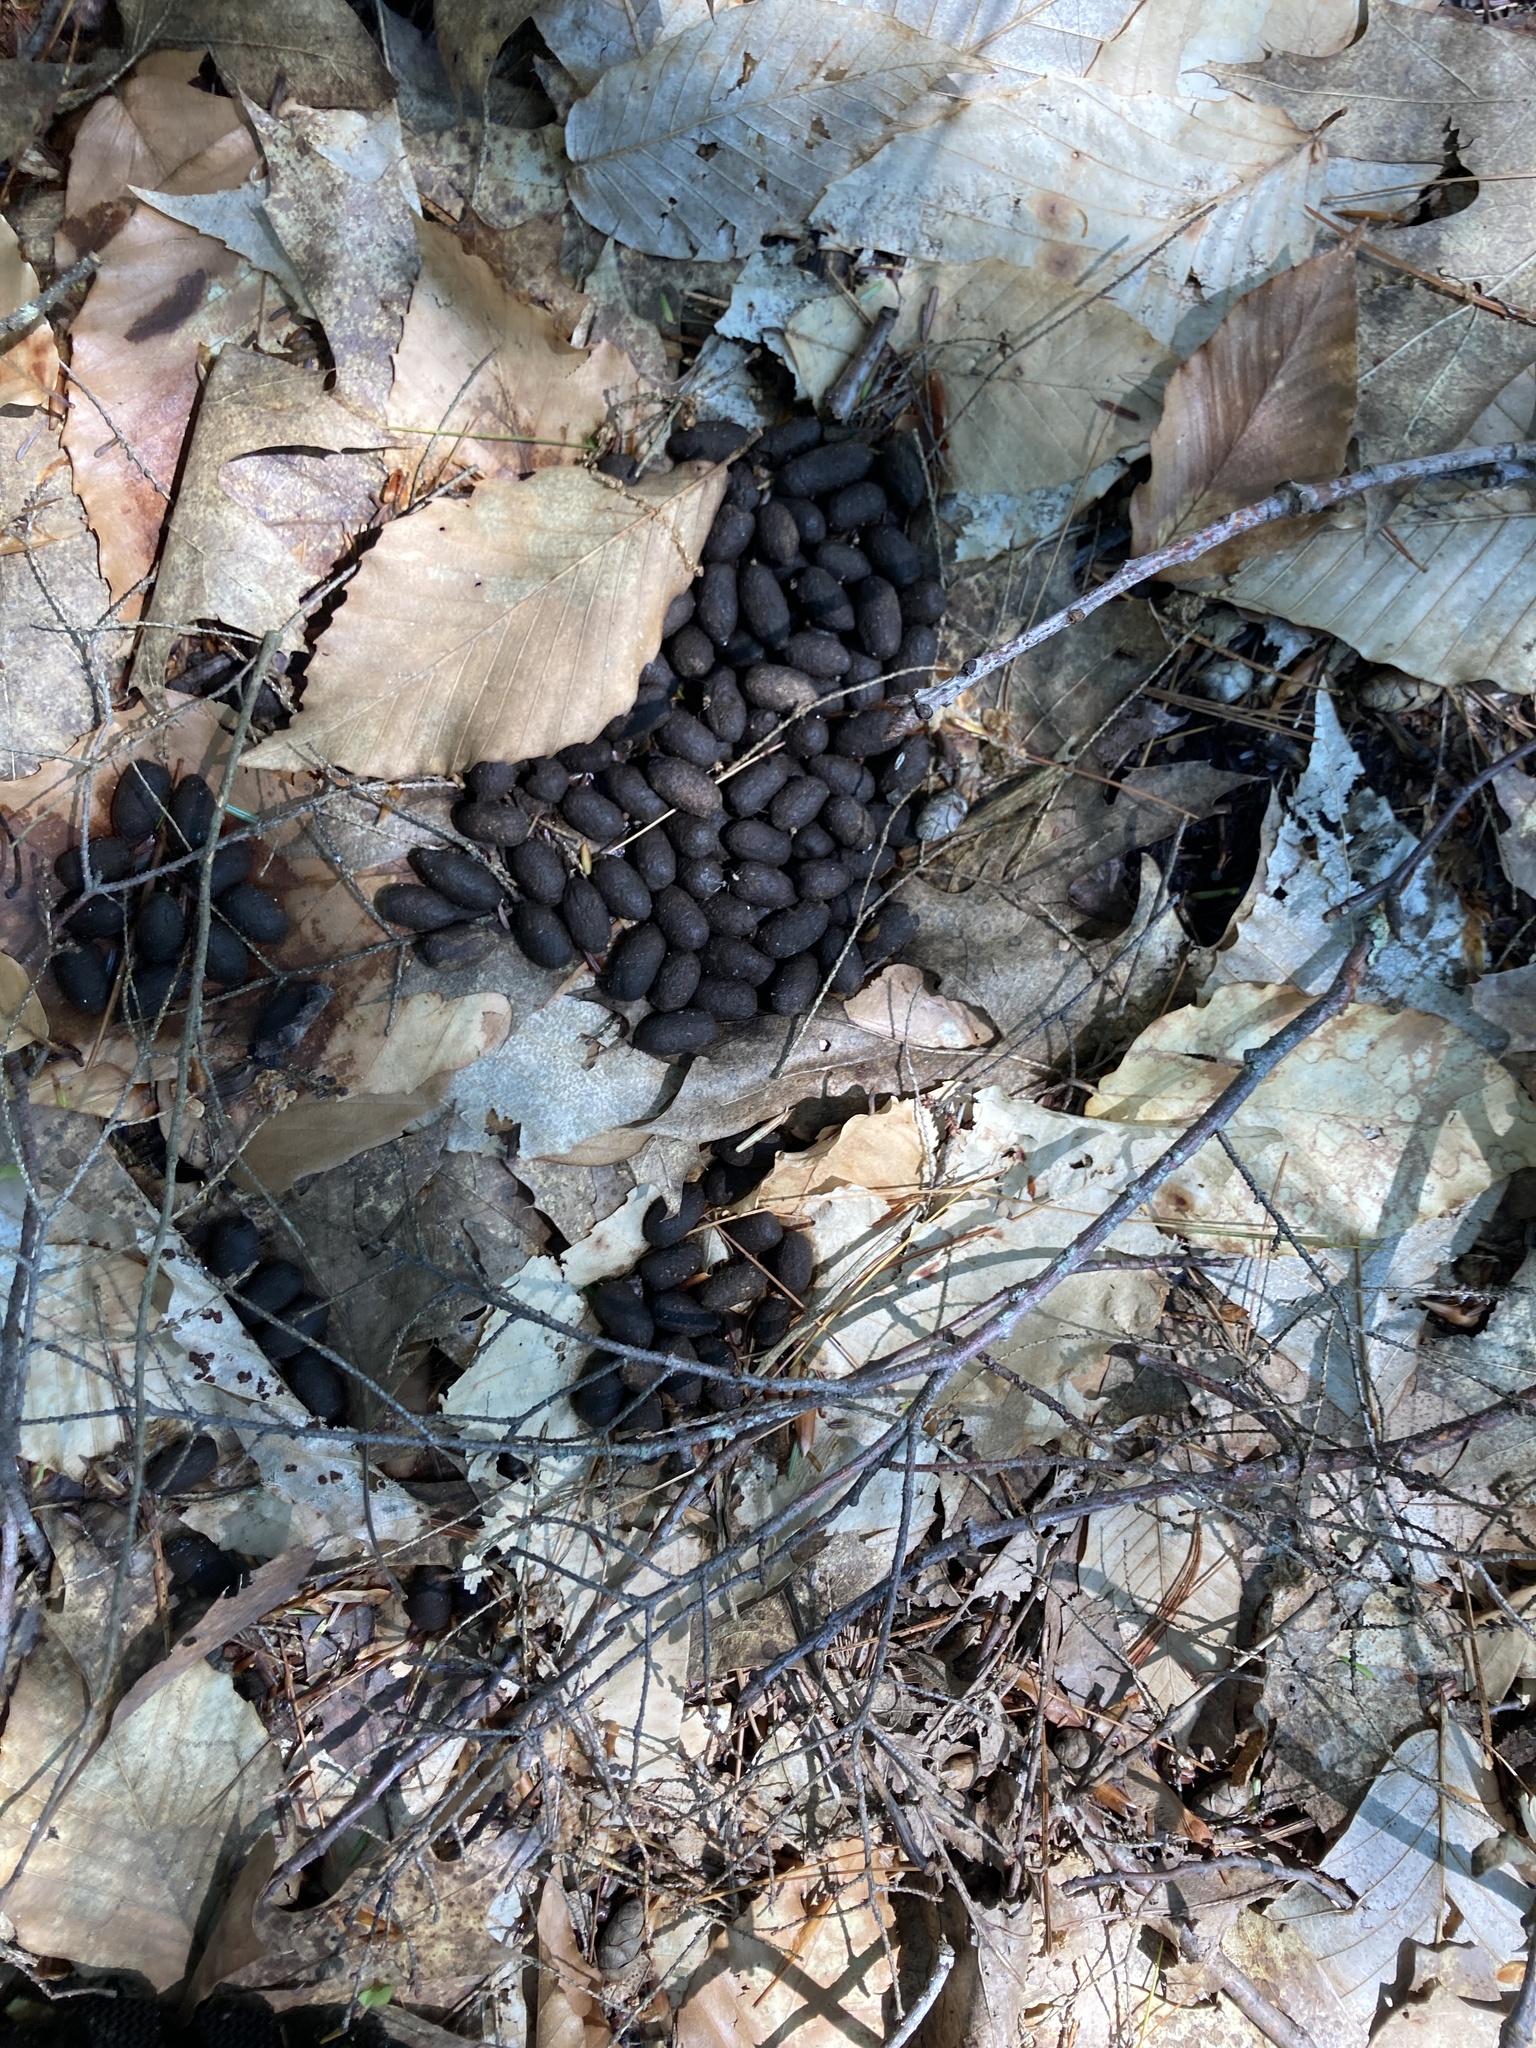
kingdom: Animalia
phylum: Chordata
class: Mammalia
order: Artiodactyla
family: Cervidae
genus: Odocoileus
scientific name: Odocoileus virginianus
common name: White-tailed deer
